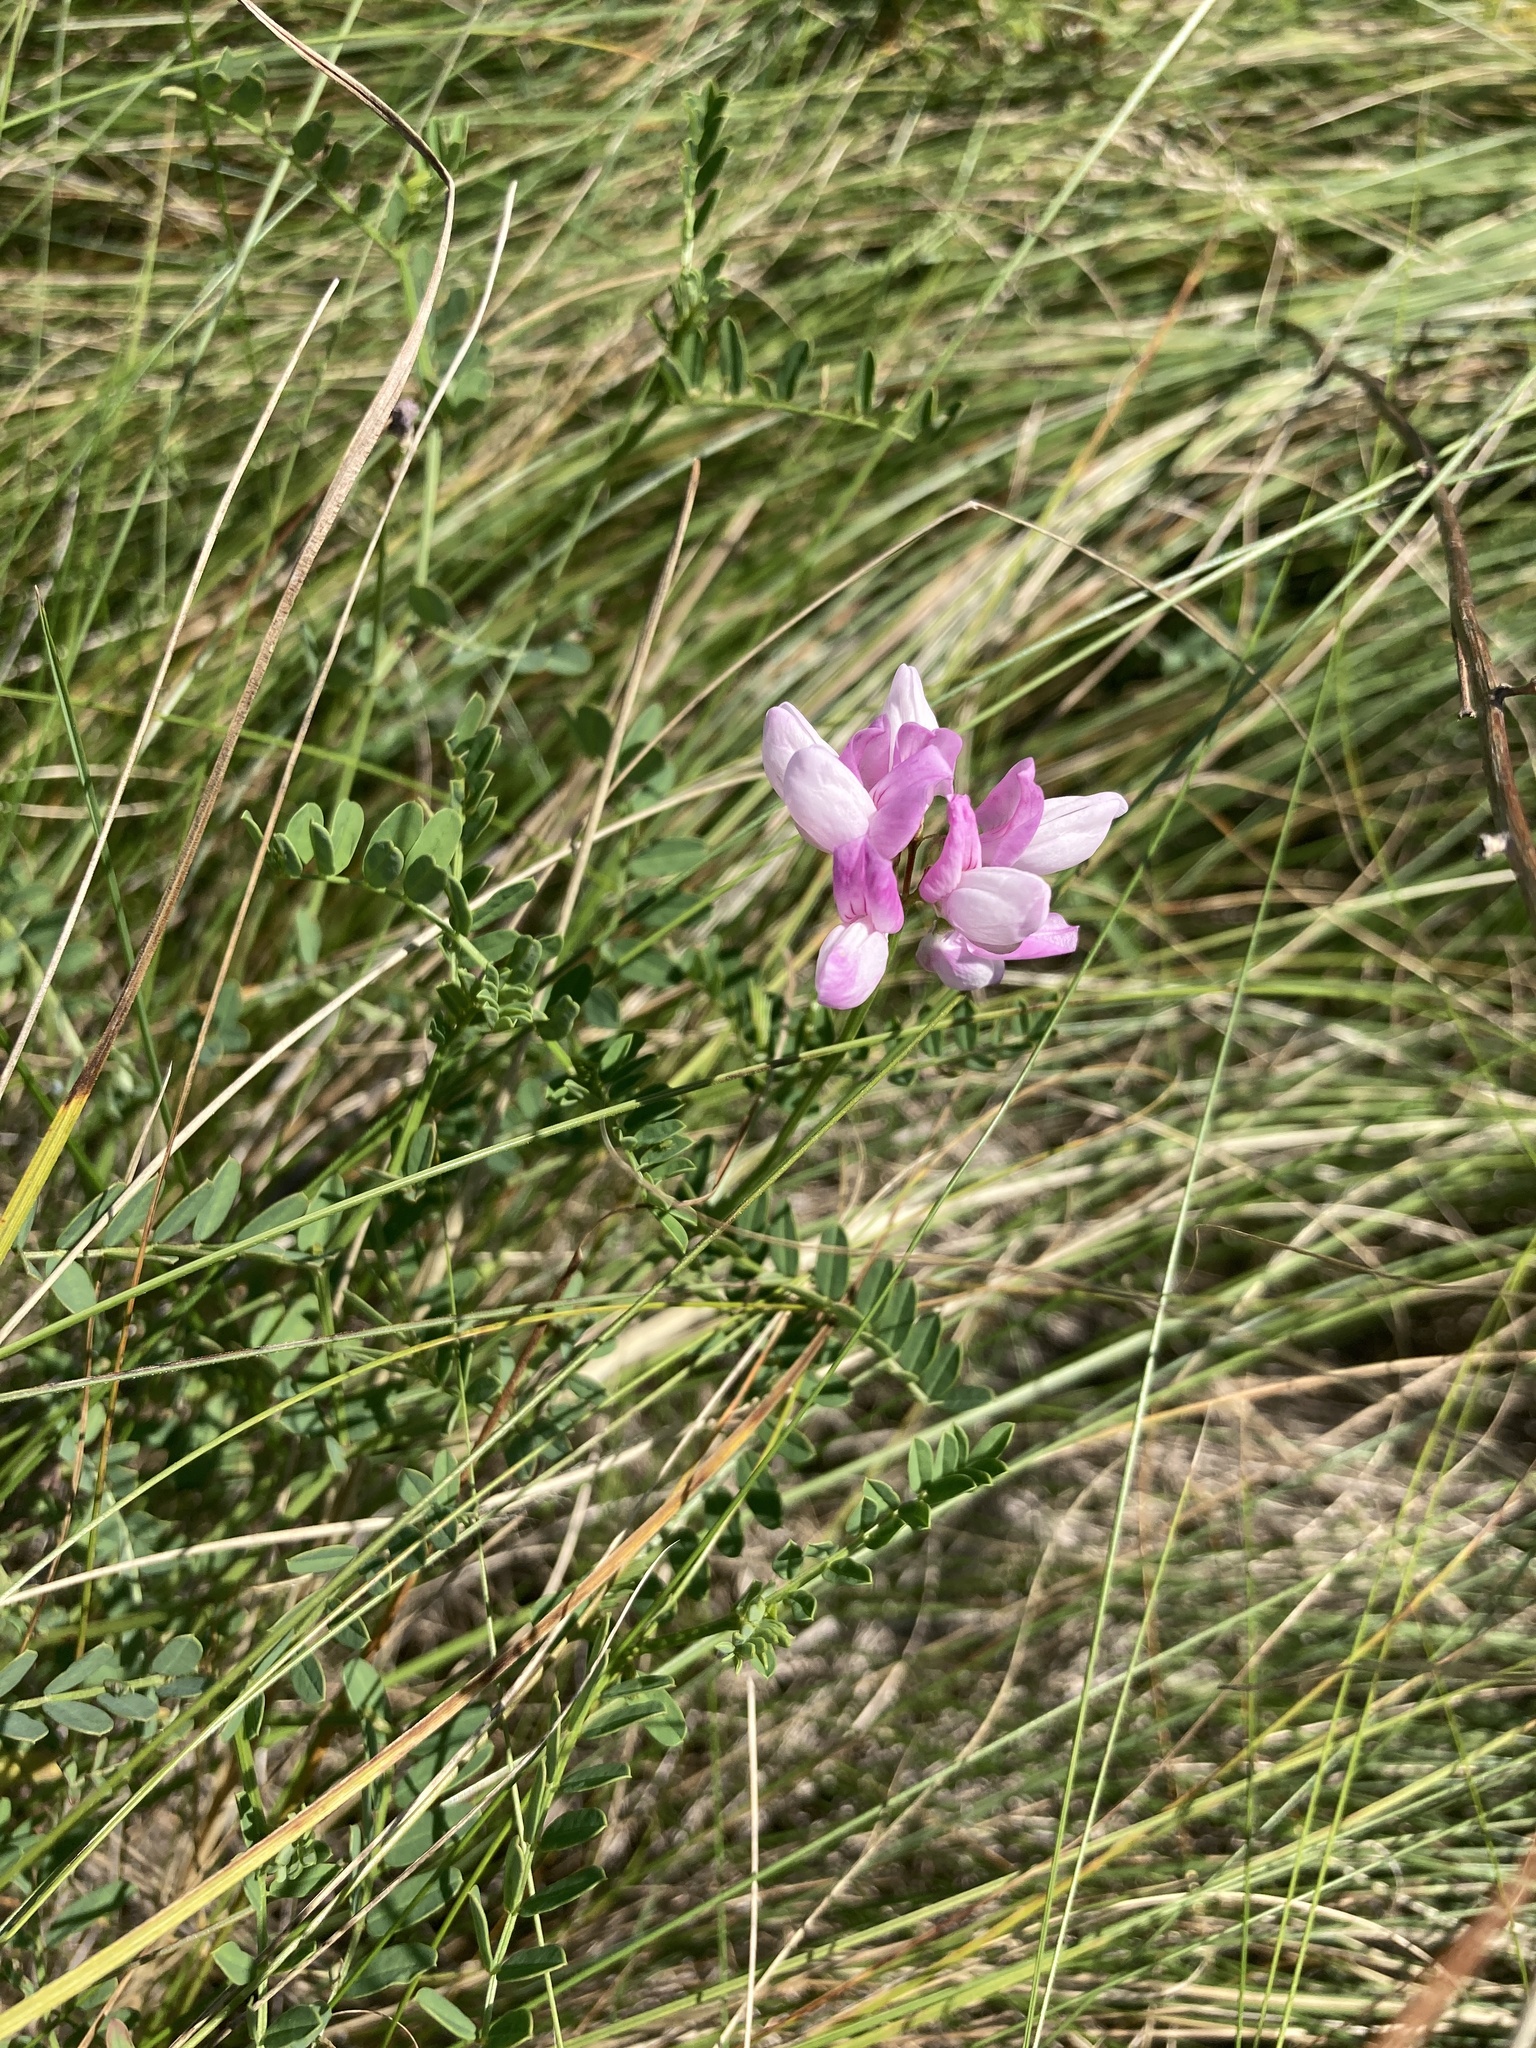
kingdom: Plantae
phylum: Tracheophyta
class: Magnoliopsida
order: Fabales
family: Fabaceae
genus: Coronilla
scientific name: Coronilla varia
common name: Crownvetch
